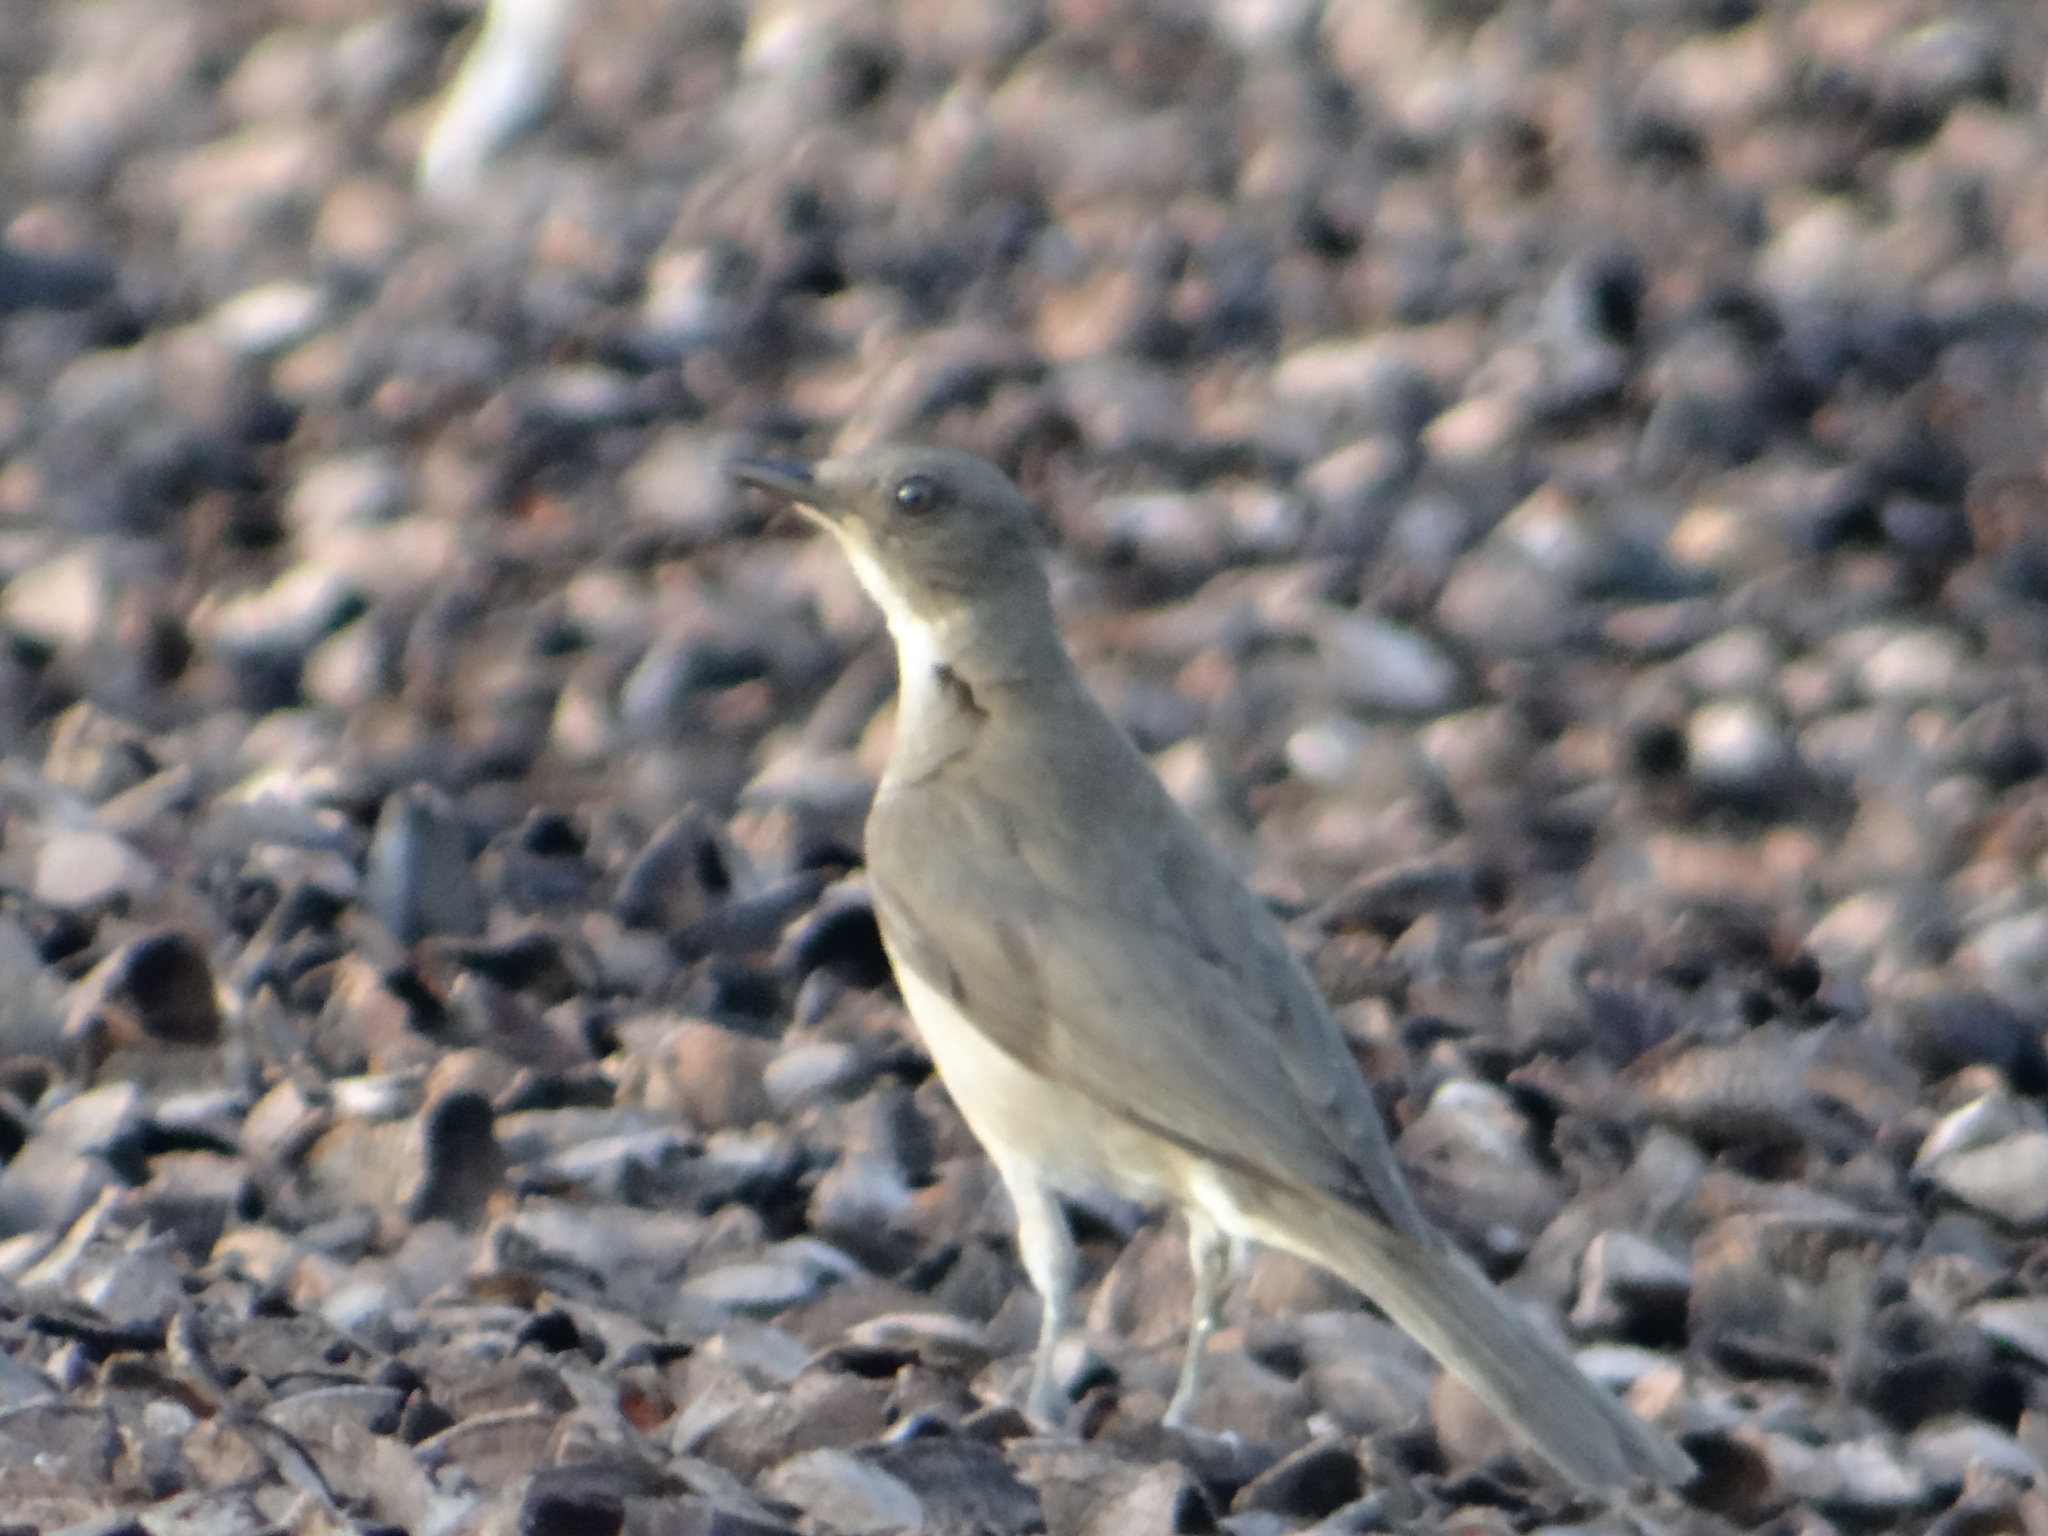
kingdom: Animalia
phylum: Chordata
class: Aves
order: Passeriformes
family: Turdidae
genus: Turdus
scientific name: Turdus ignobilis
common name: Black-billed thrush
